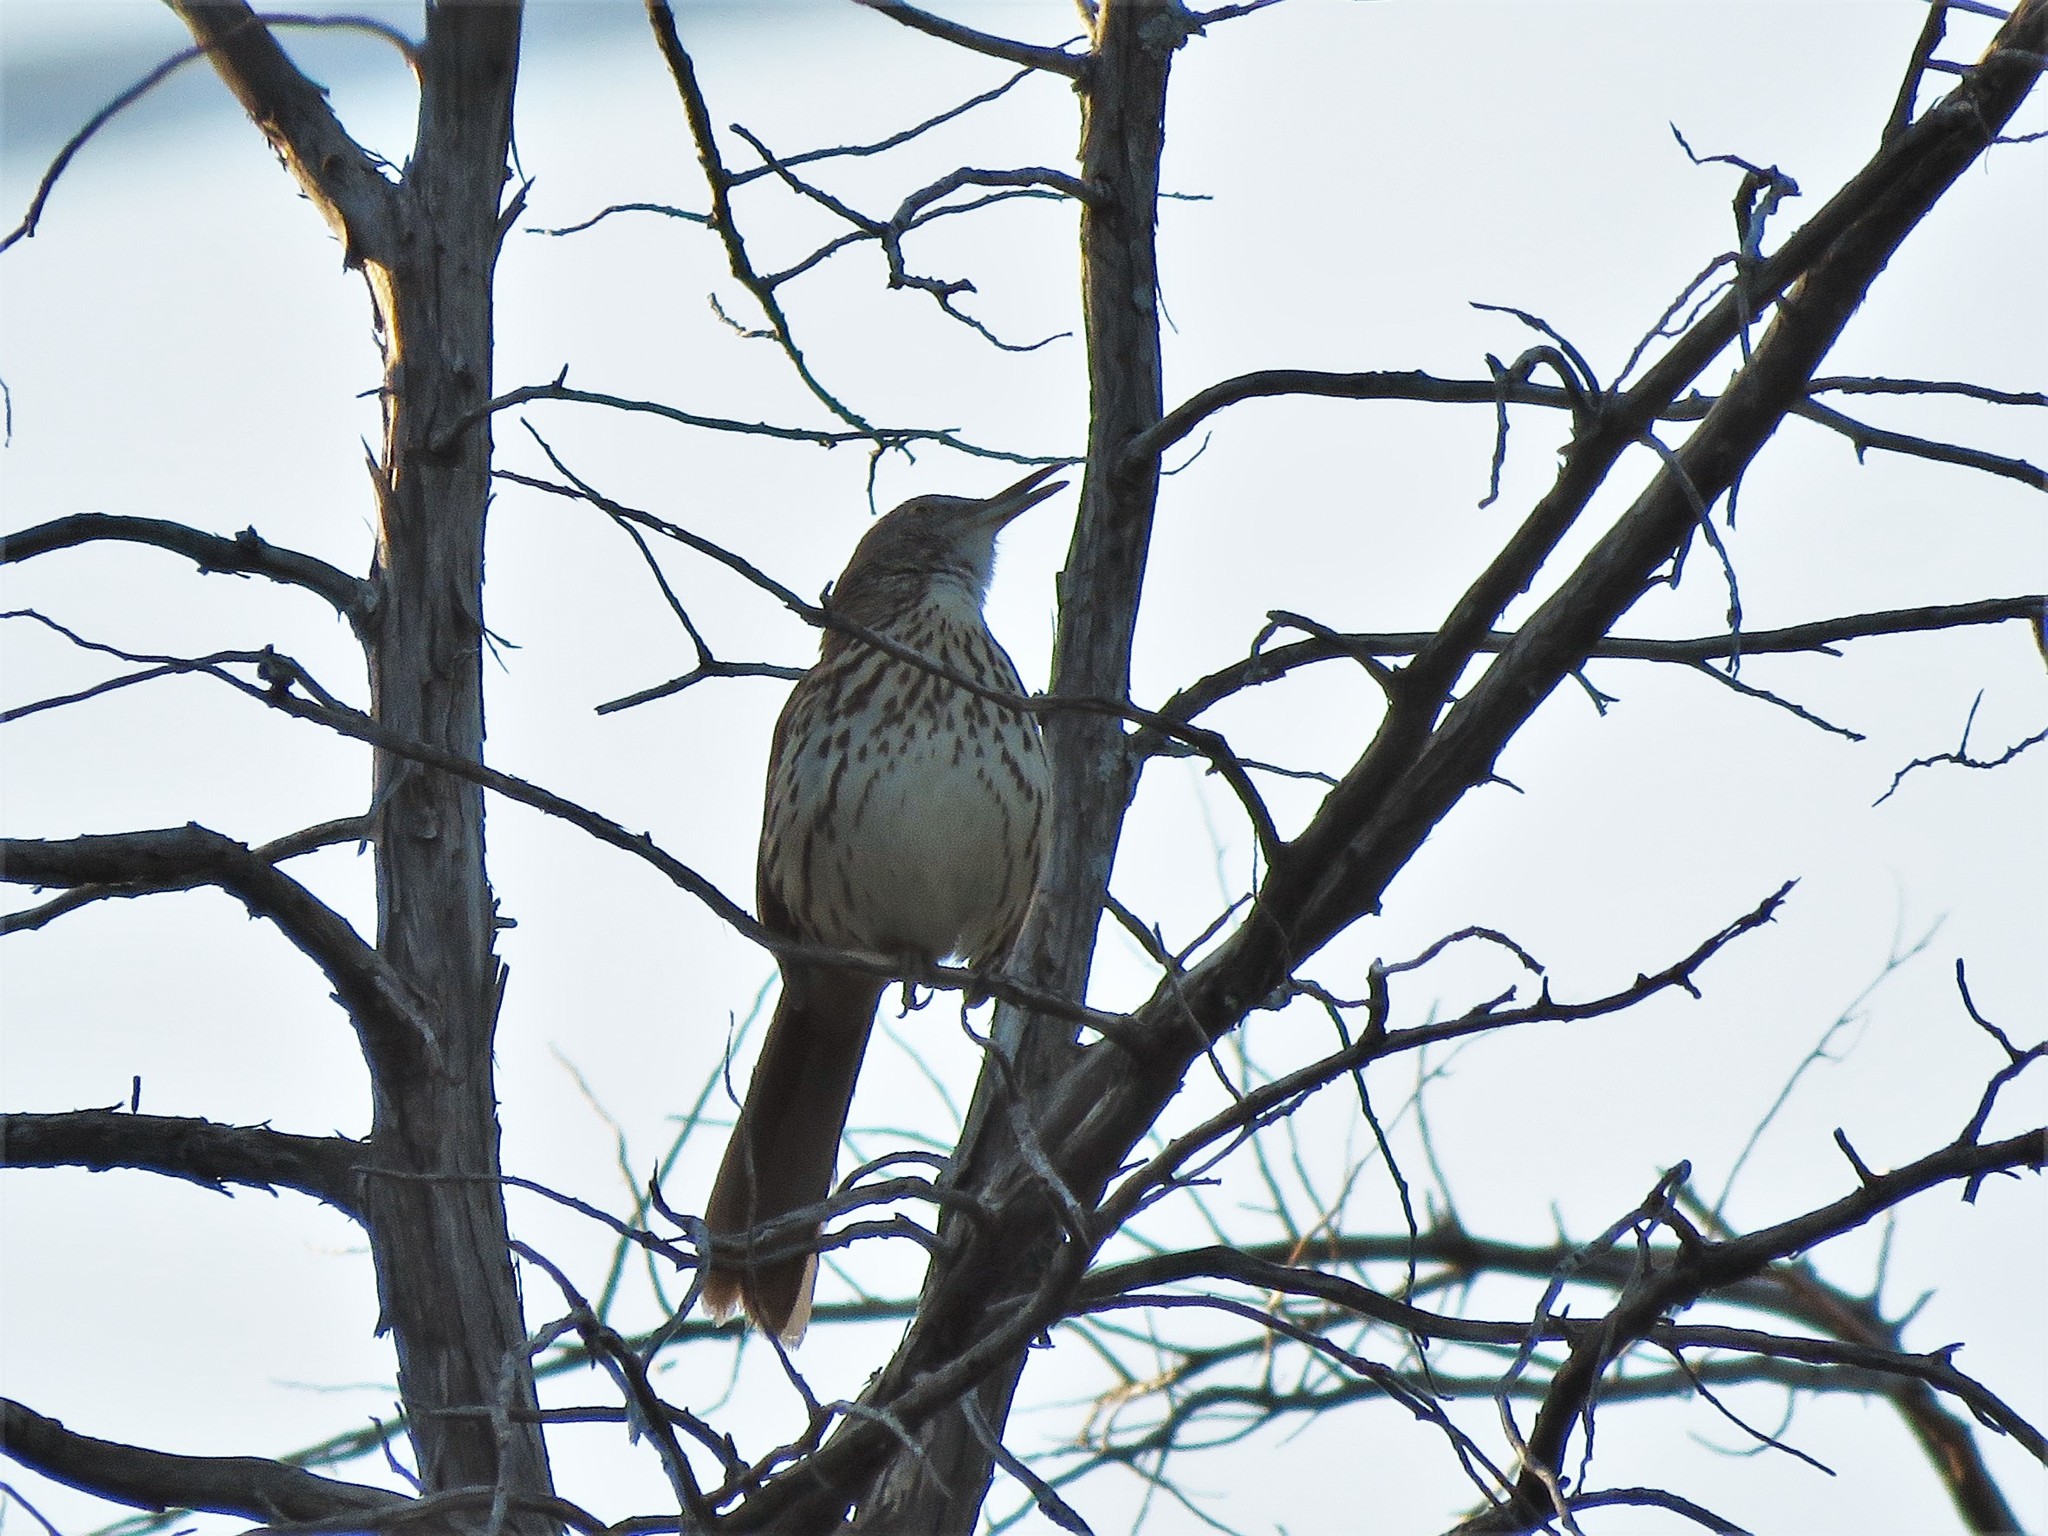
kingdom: Animalia
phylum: Chordata
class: Aves
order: Passeriformes
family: Mimidae
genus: Toxostoma
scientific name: Toxostoma rufum
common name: Brown thrasher
